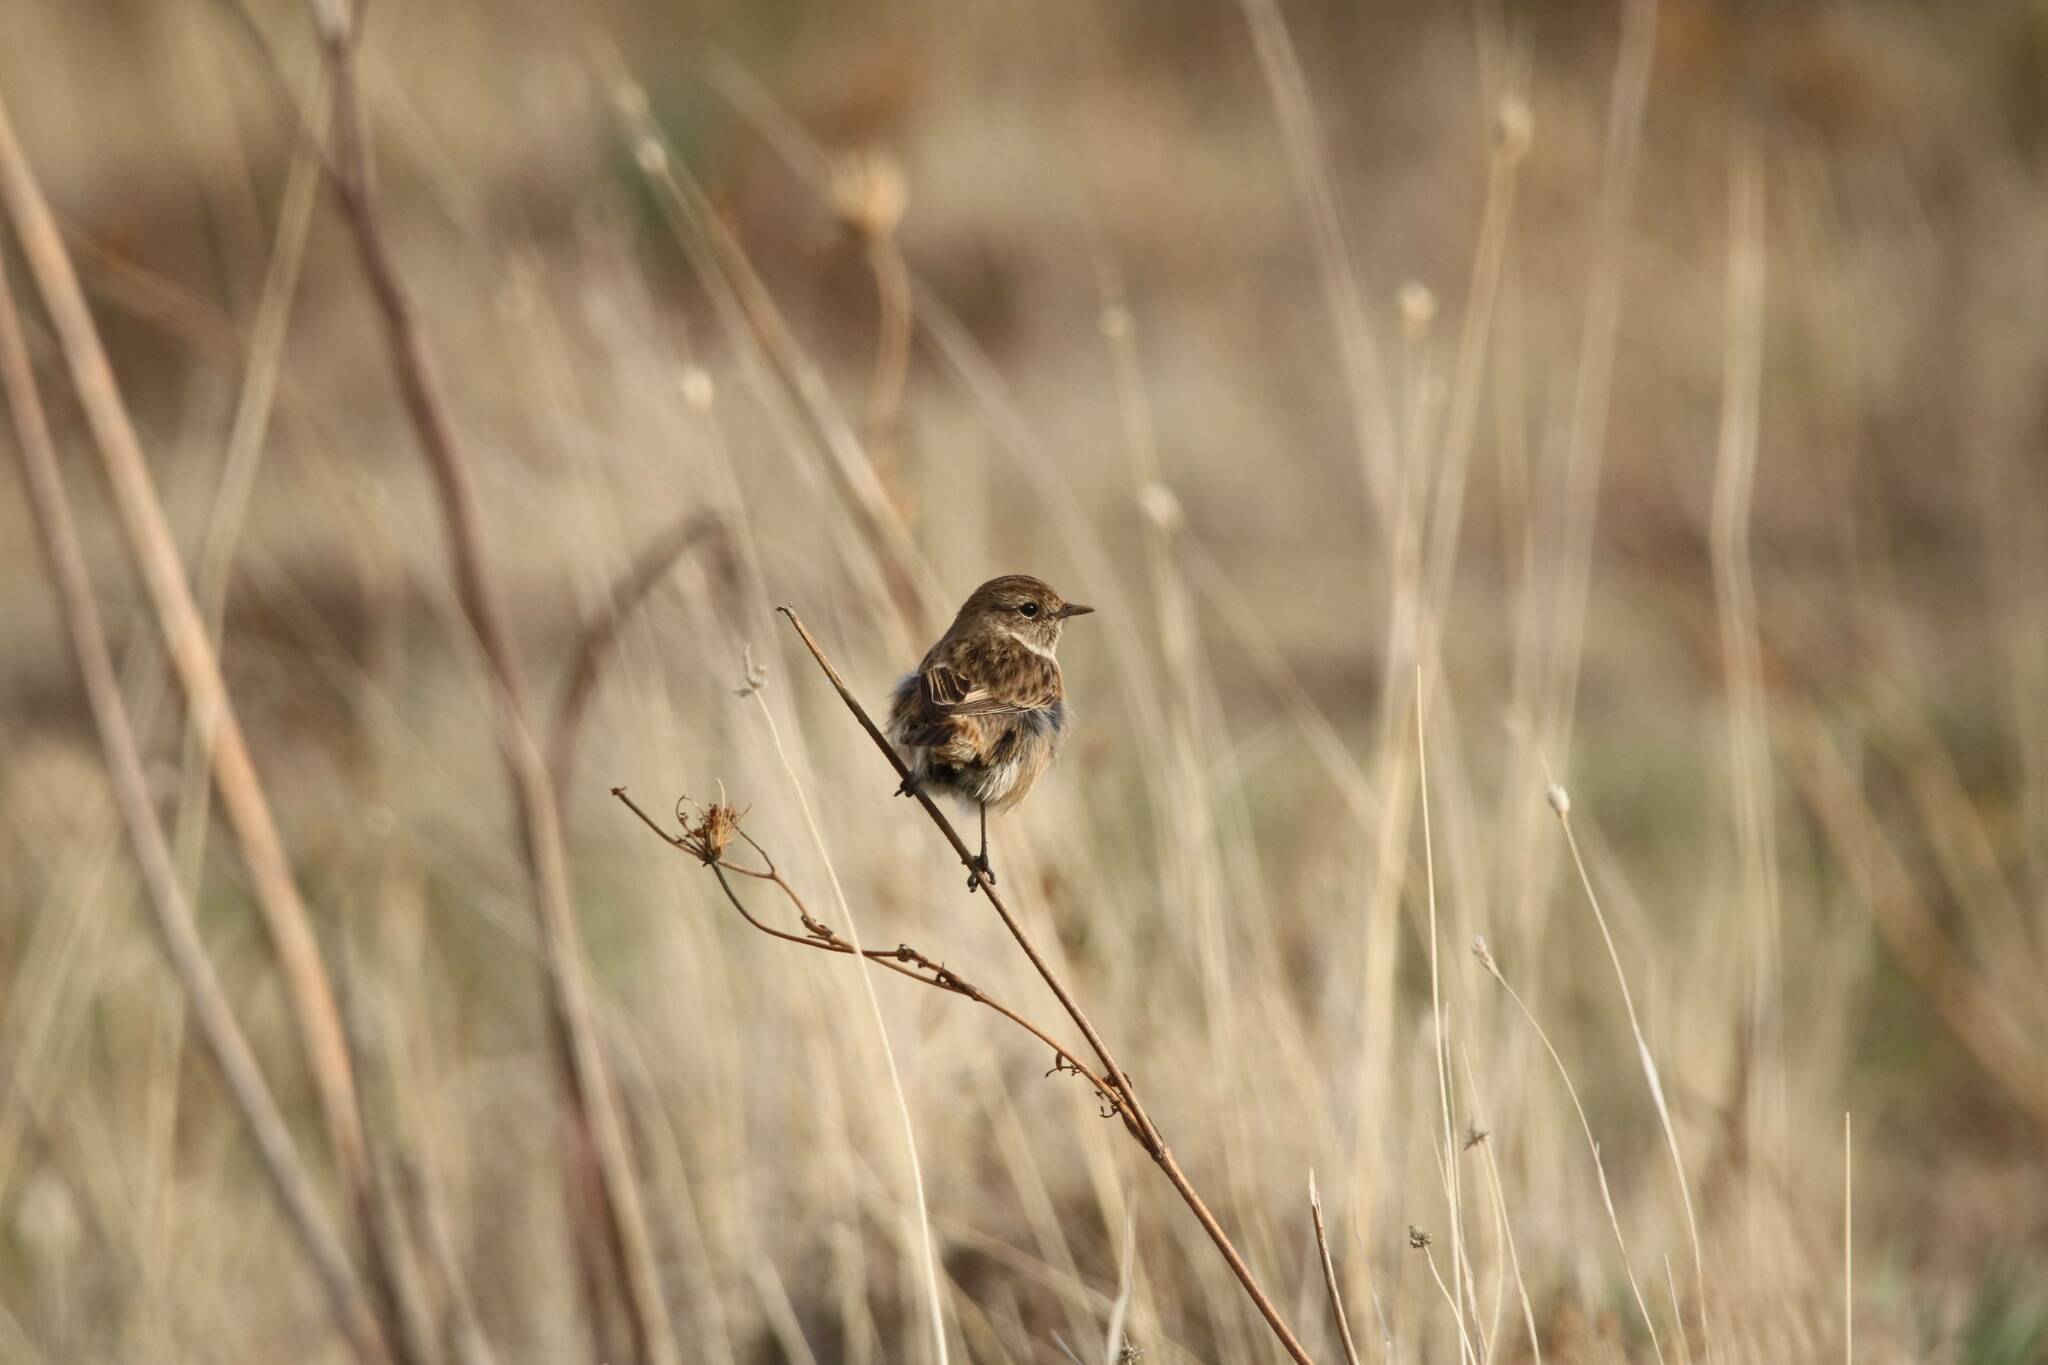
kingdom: Animalia
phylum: Chordata
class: Aves
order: Passeriformes
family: Muscicapidae
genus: Saxicola
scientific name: Saxicola rubicola
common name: European stonechat
